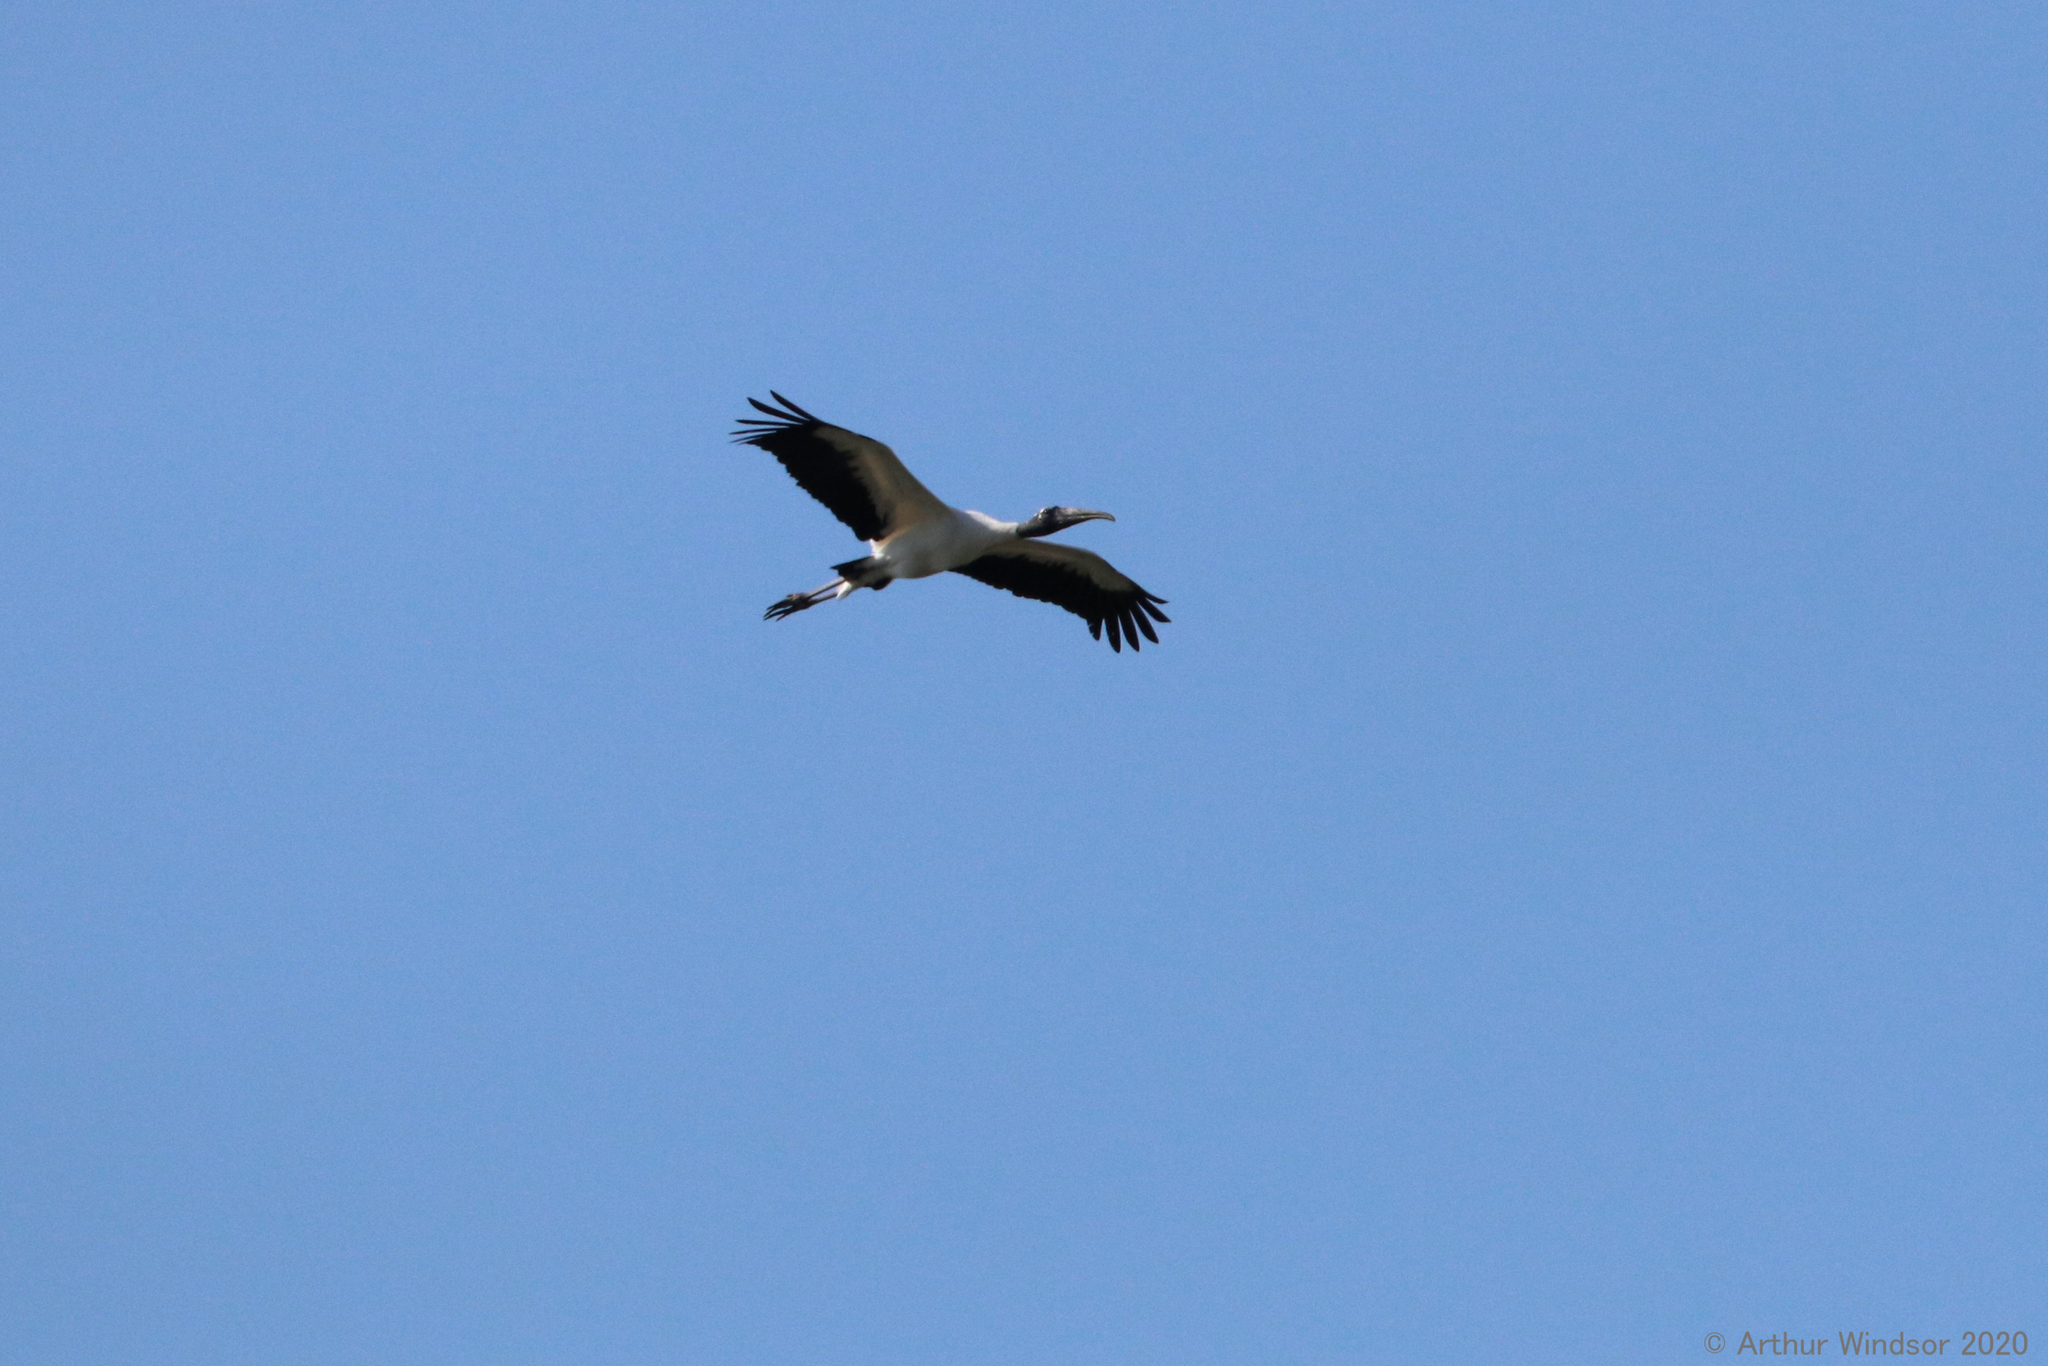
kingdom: Animalia
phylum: Chordata
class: Aves
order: Ciconiiformes
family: Ciconiidae
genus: Mycteria
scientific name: Mycteria americana
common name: Wood stork
